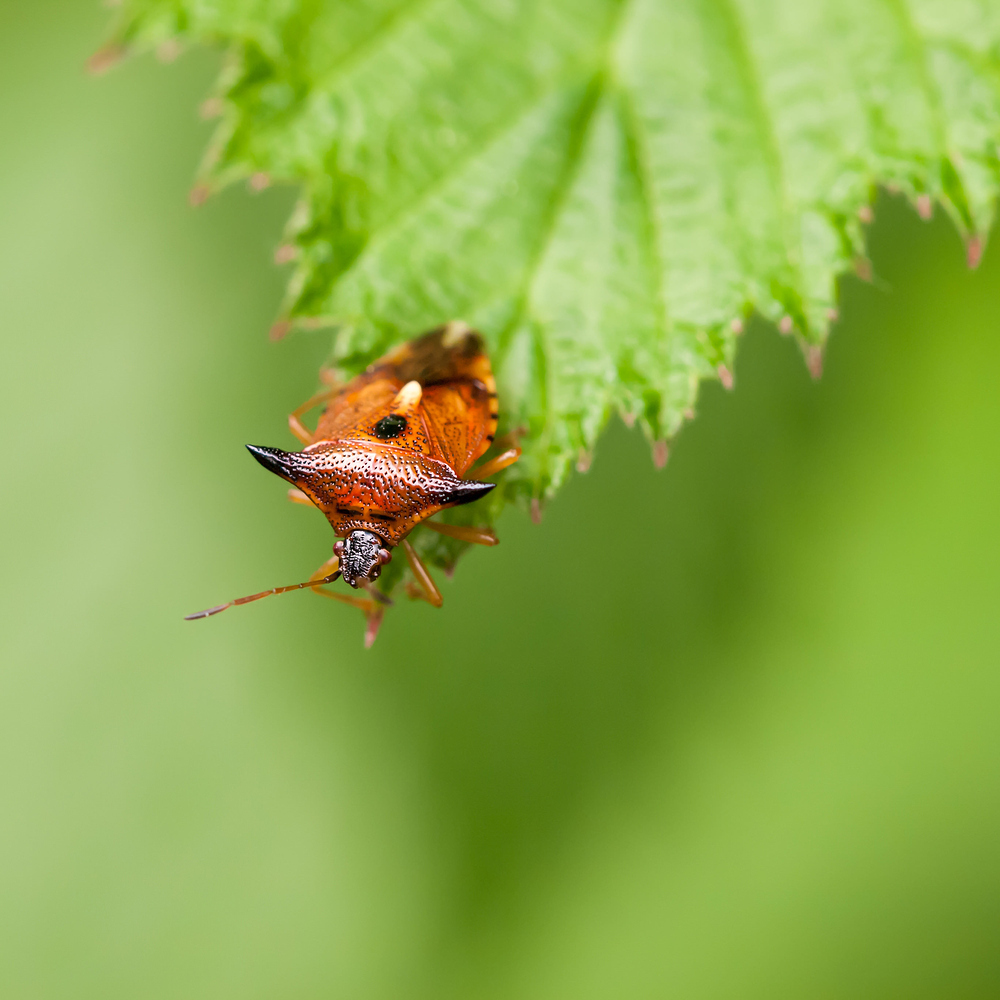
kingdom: Animalia
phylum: Arthropoda
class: Insecta
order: Hemiptera
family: Acanthosomatidae
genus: Elasmucha
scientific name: Elasmucha ferrugata
